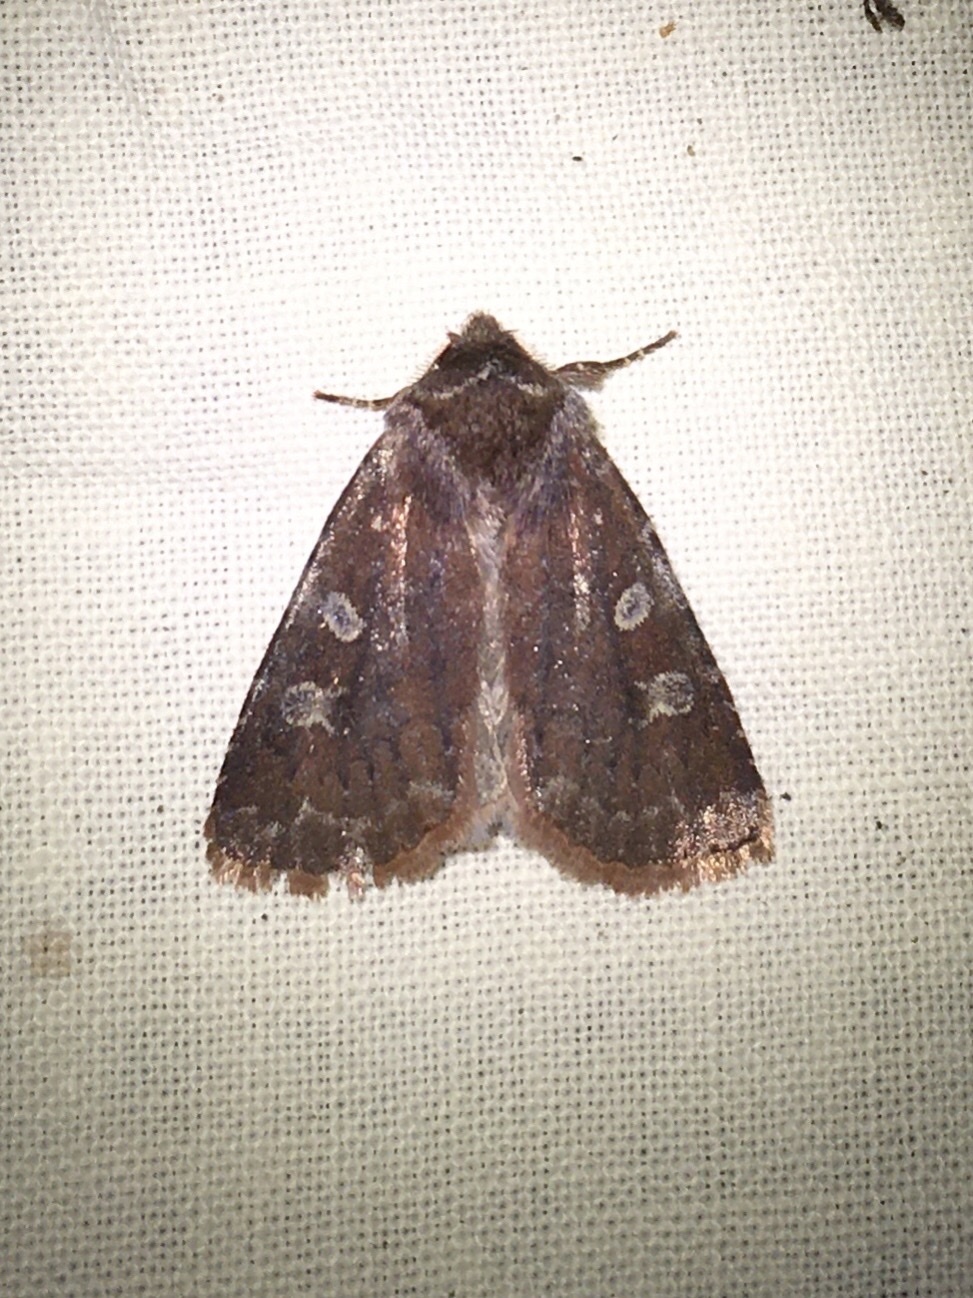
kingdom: Animalia
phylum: Arthropoda
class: Insecta
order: Lepidoptera
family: Noctuidae
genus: Cerastis
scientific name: Cerastis tenebrifera
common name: Reddish speckled dart
